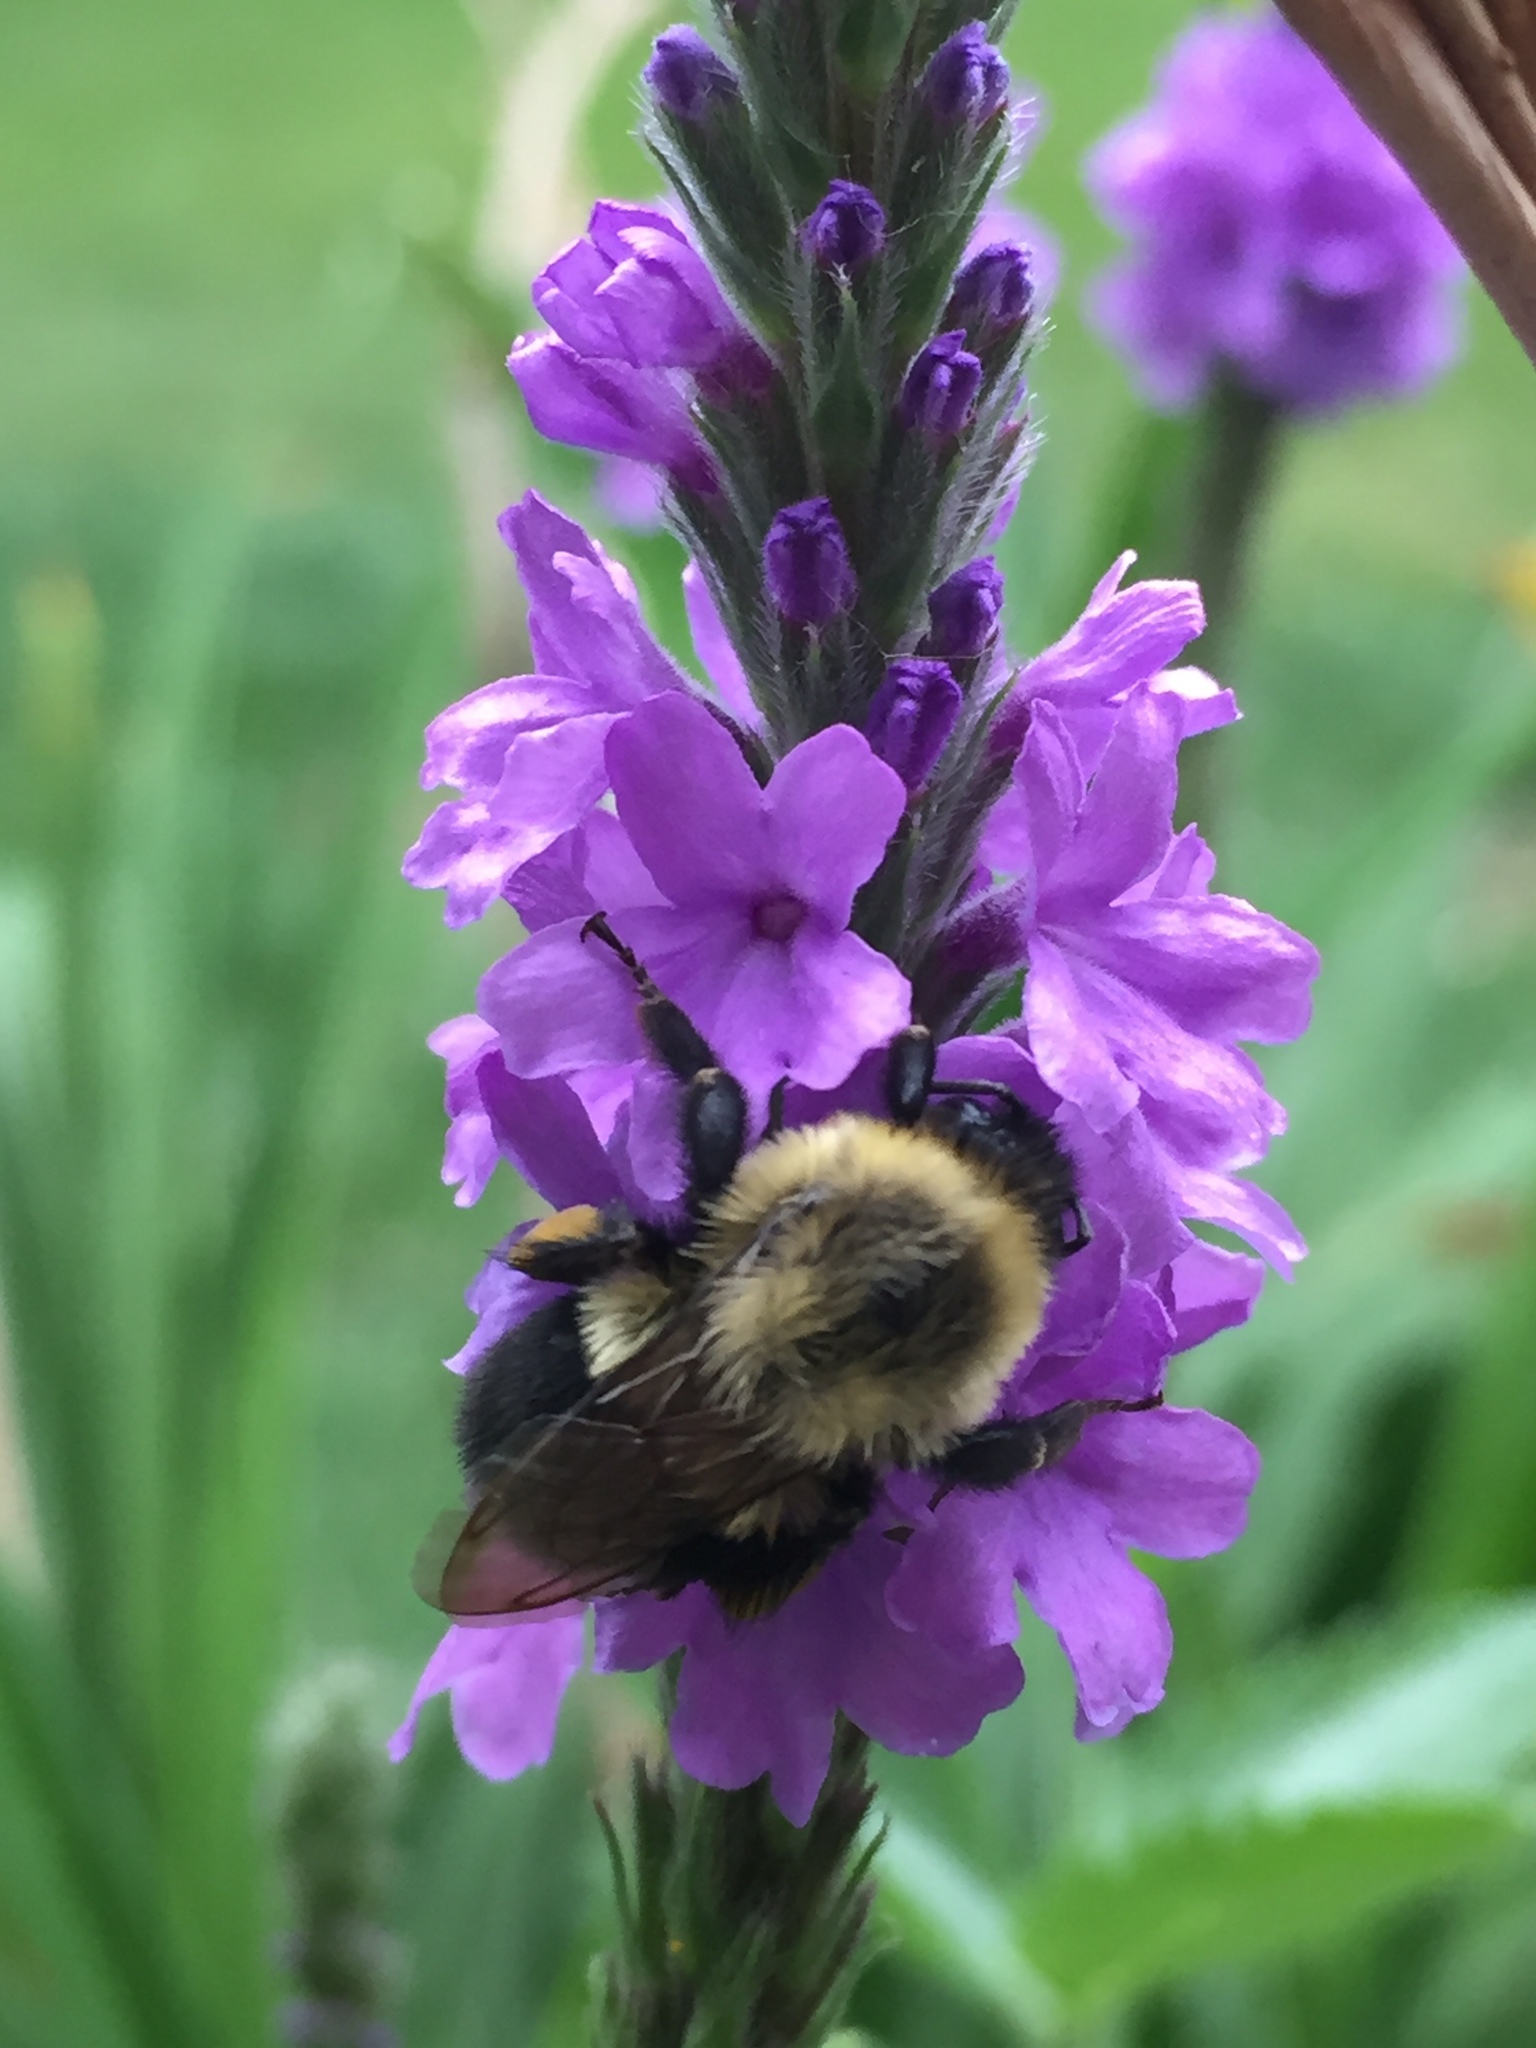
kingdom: Animalia
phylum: Arthropoda
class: Insecta
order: Hymenoptera
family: Apidae
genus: Bombus
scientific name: Bombus impatiens
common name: Common eastern bumble bee
